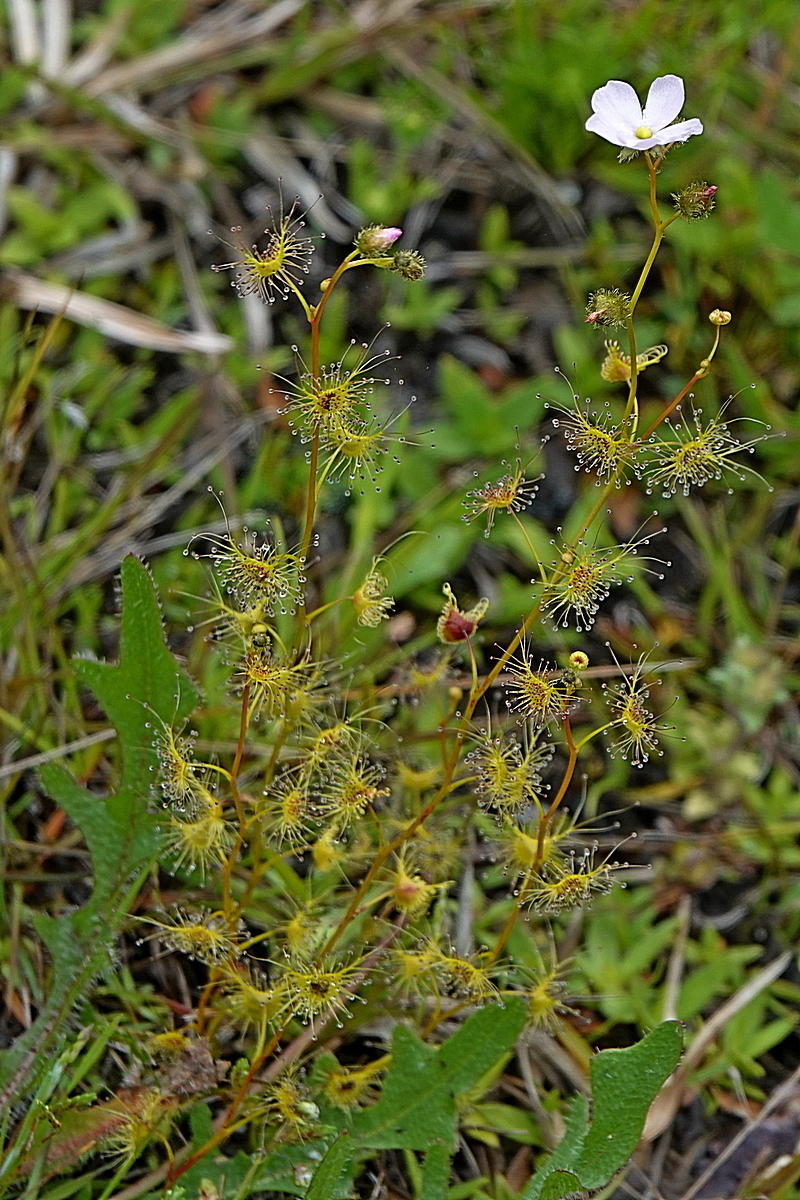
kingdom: Plantae
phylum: Tracheophyta
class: Magnoliopsida
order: Caryophyllales
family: Droseraceae
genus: Drosera
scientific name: Drosera gunniana
